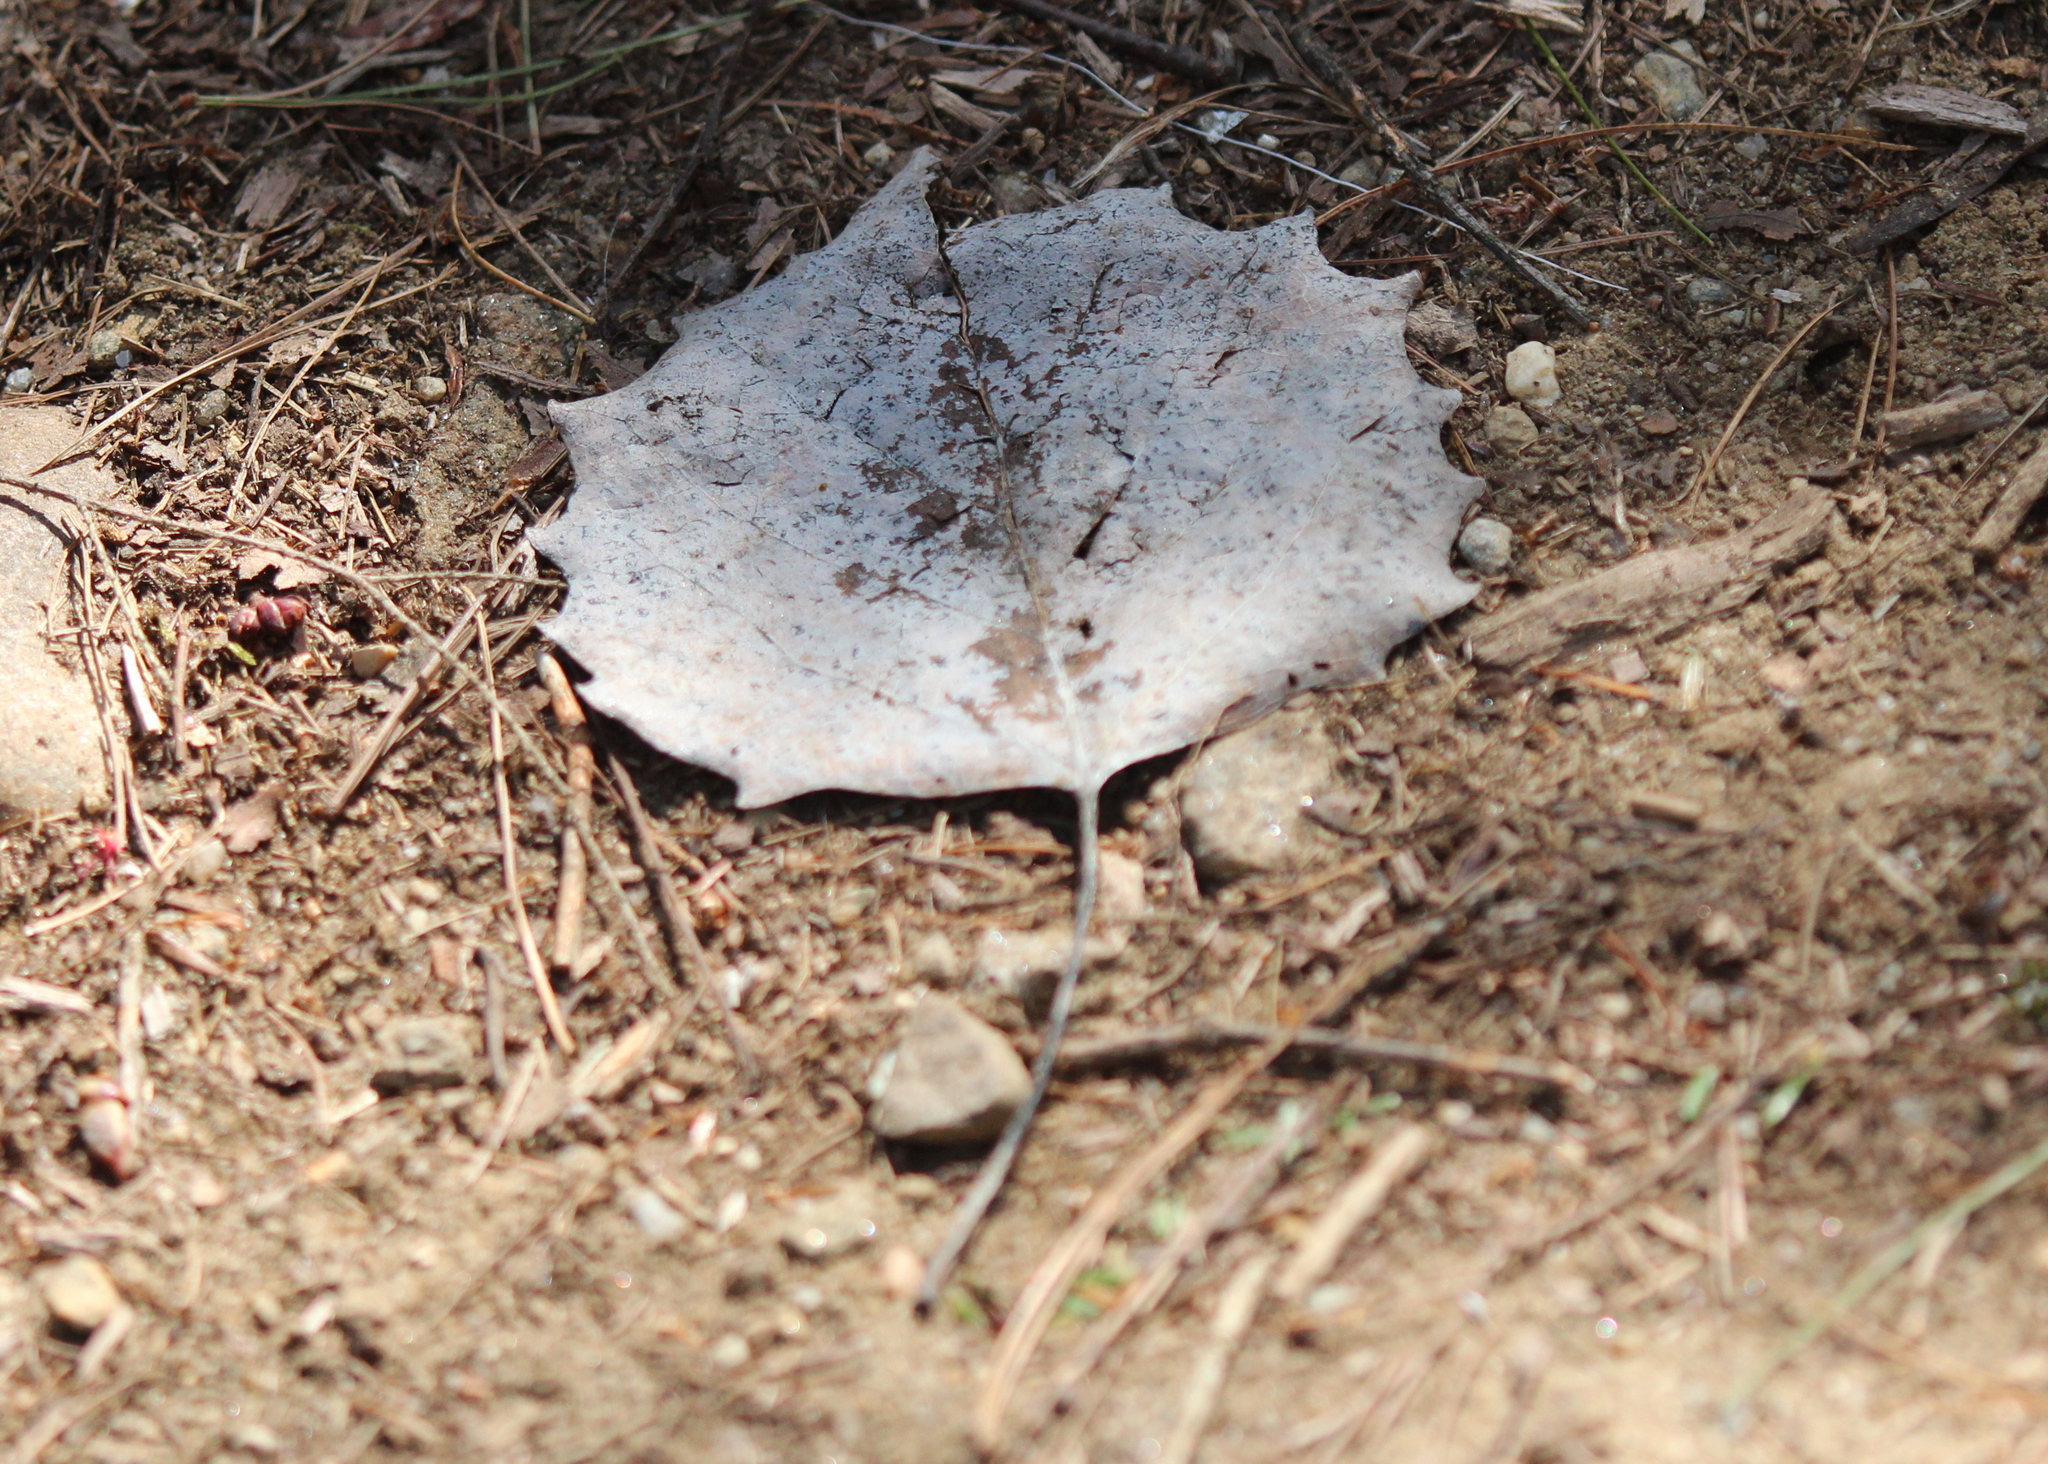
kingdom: Plantae
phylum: Tracheophyta
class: Magnoliopsida
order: Malpighiales
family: Salicaceae
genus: Populus
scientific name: Populus grandidentata
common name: Bigtooth aspen
